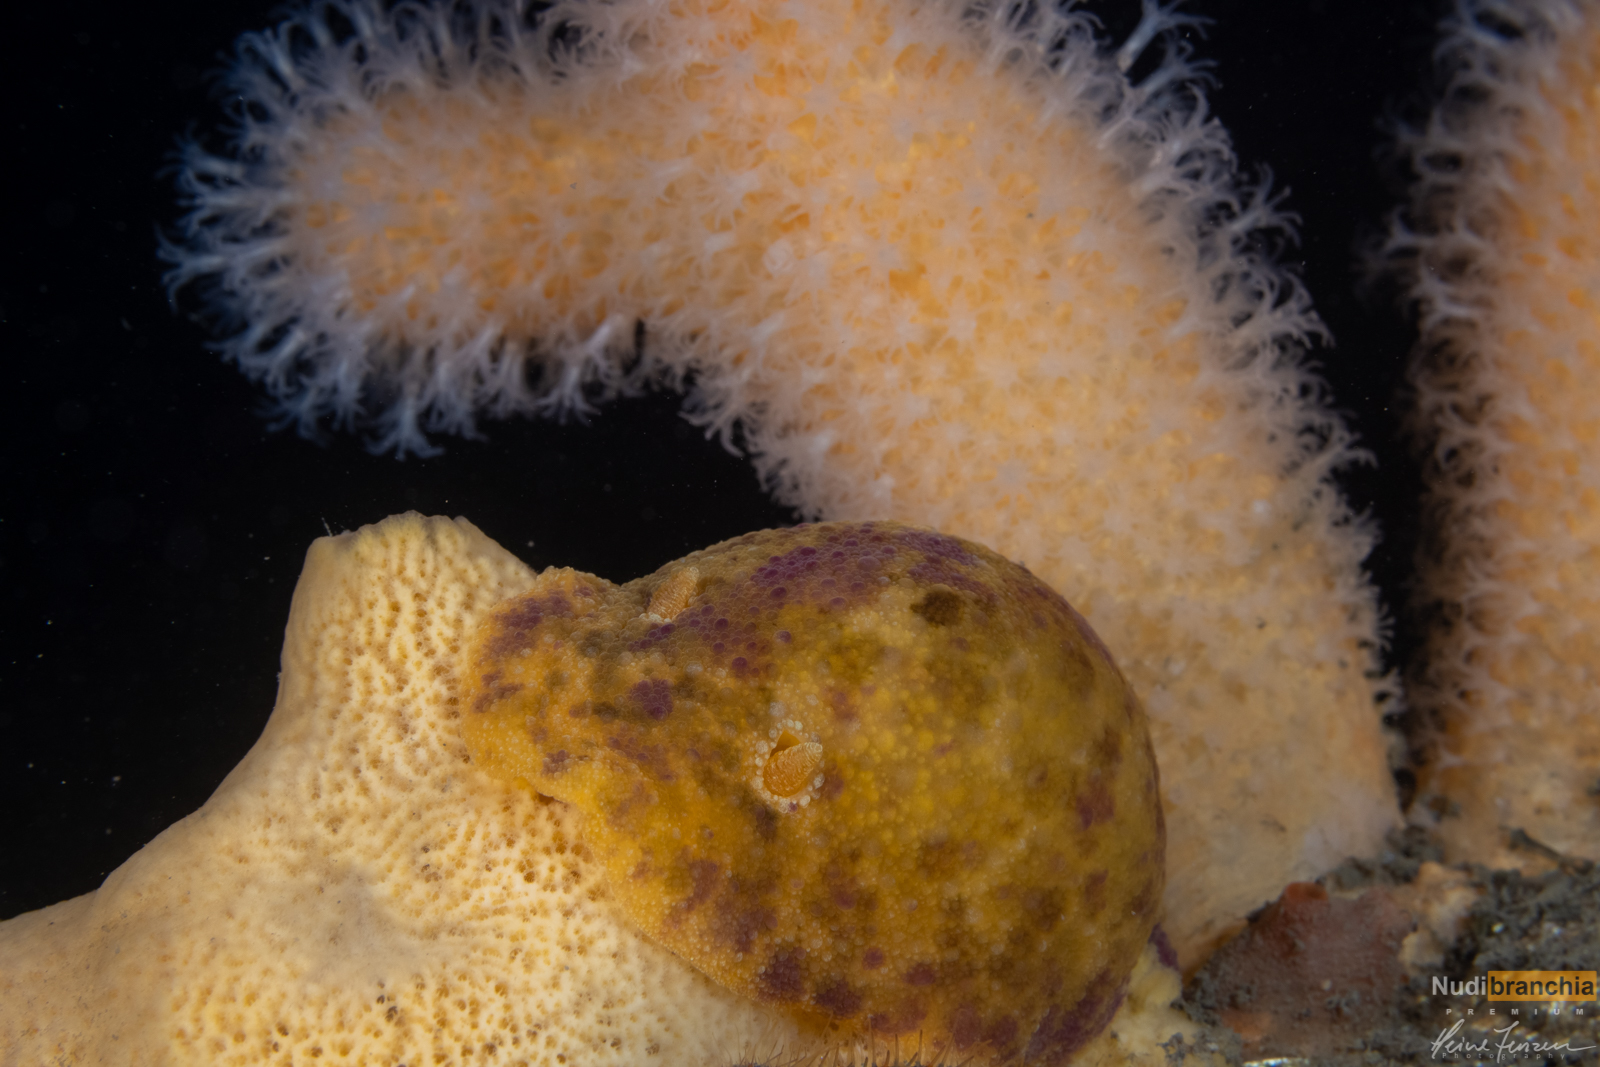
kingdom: Animalia
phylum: Mollusca
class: Gastropoda
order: Nudibranchia
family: Dorididae
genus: Doris
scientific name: Doris pseudoargus
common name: Sea lemon
